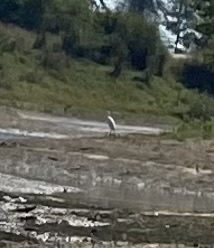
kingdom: Animalia
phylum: Chordata
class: Aves
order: Pelecaniformes
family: Ardeidae
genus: Ardea
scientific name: Ardea
